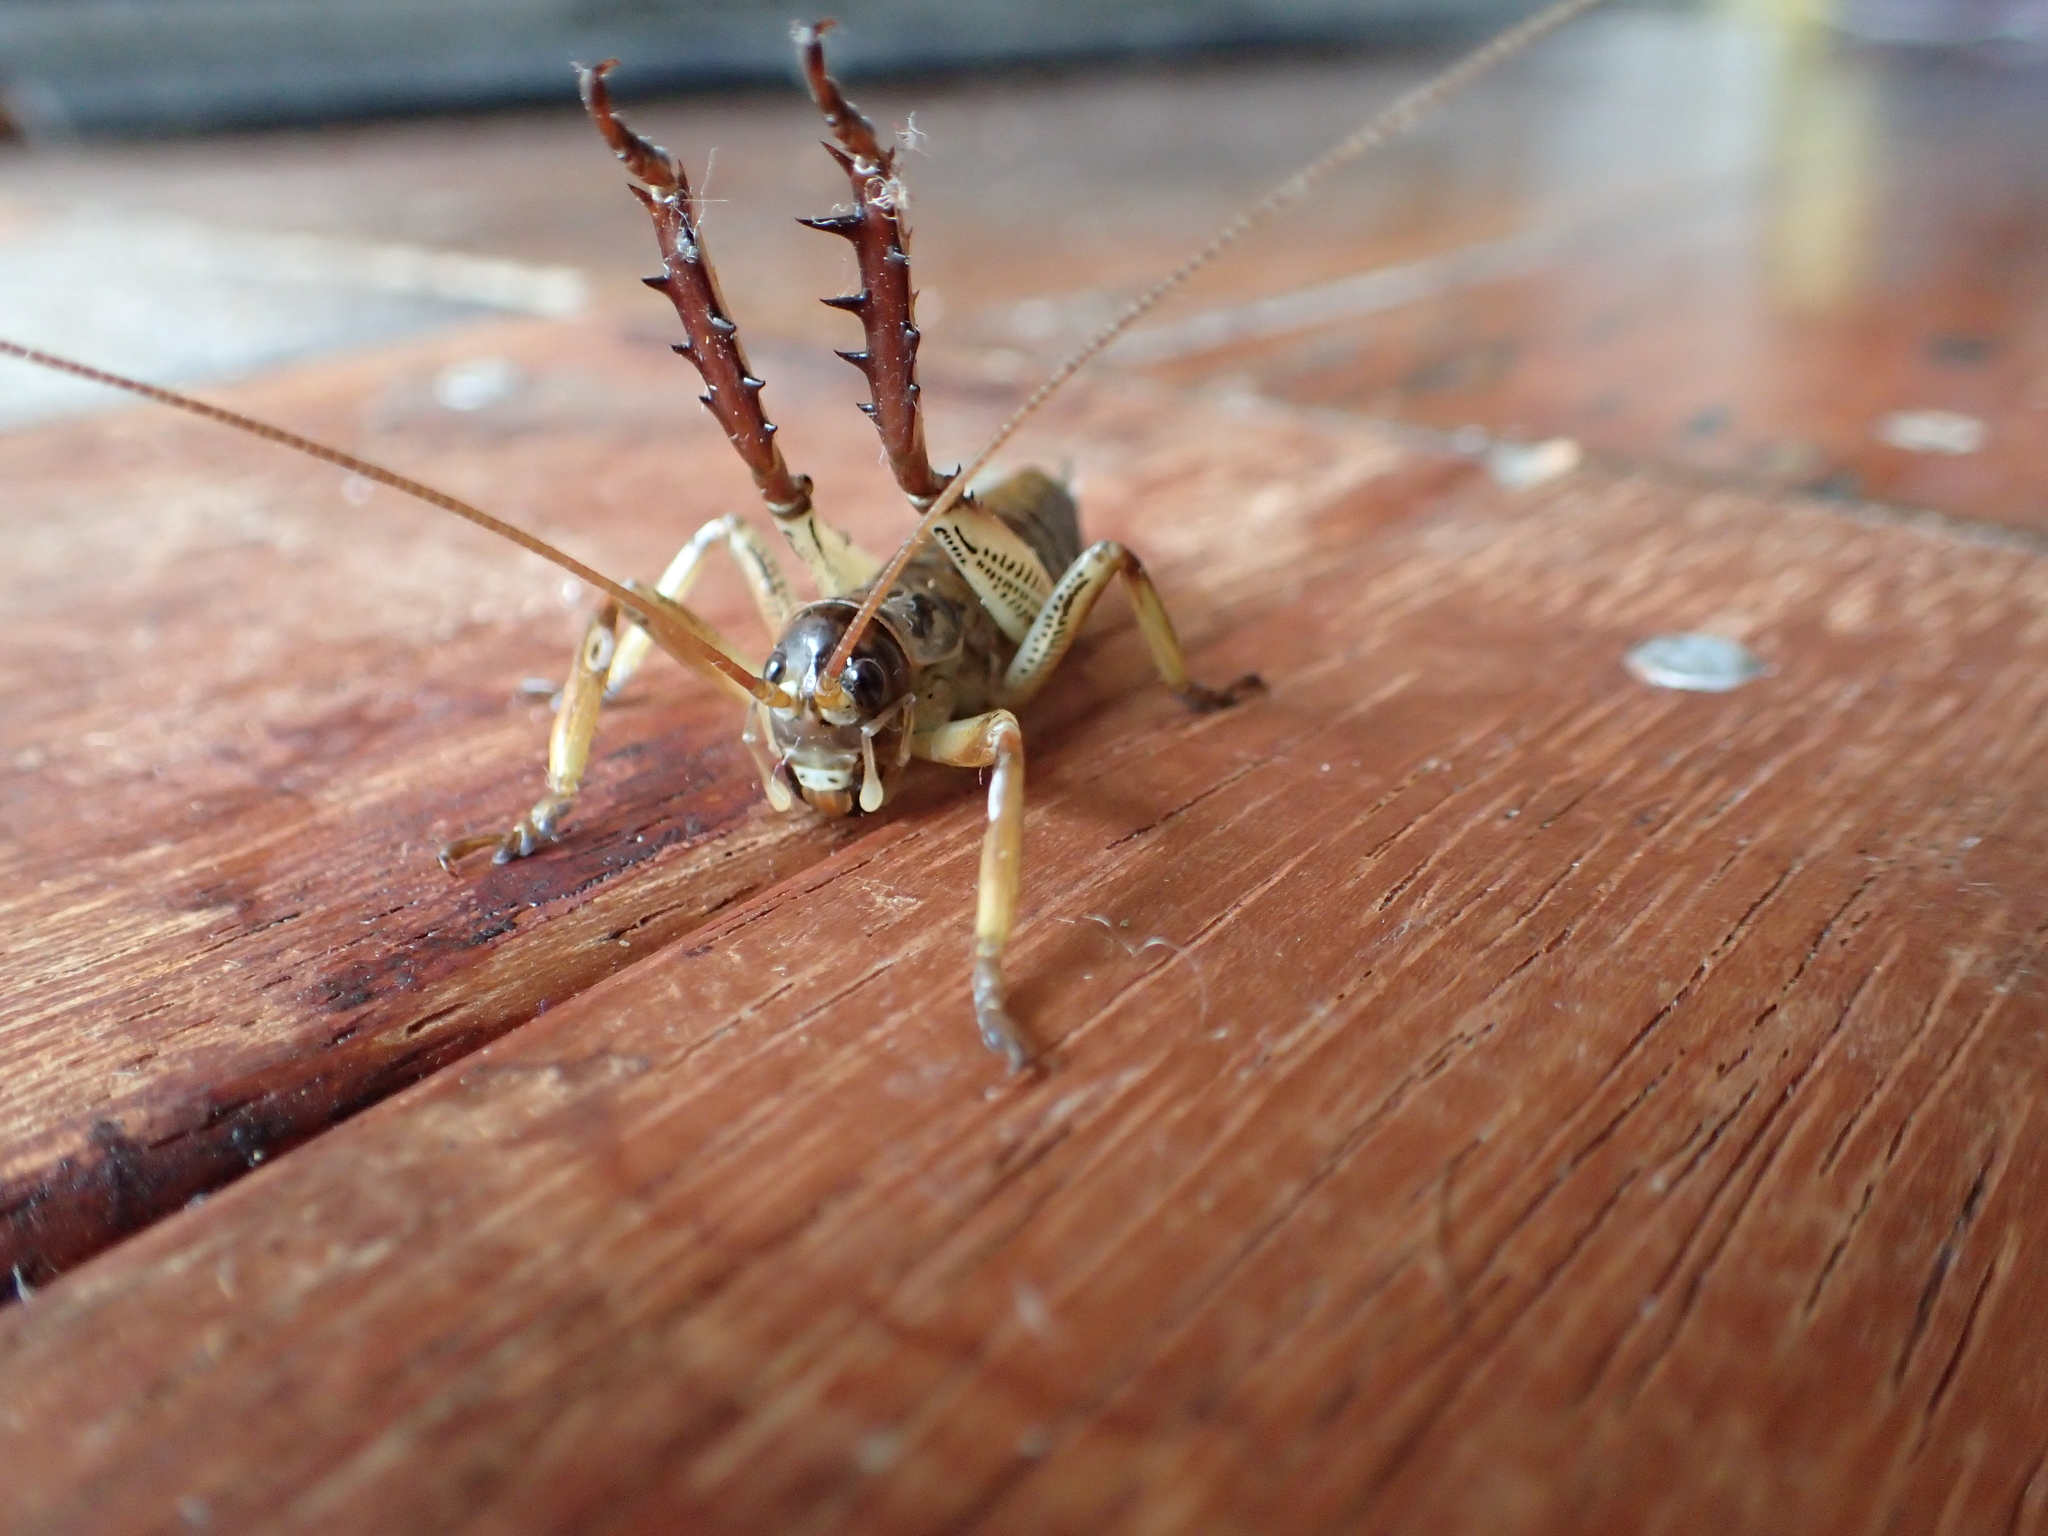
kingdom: Animalia
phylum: Arthropoda
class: Insecta
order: Orthoptera
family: Anostostomatidae
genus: Hemideina
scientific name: Hemideina thoracica
